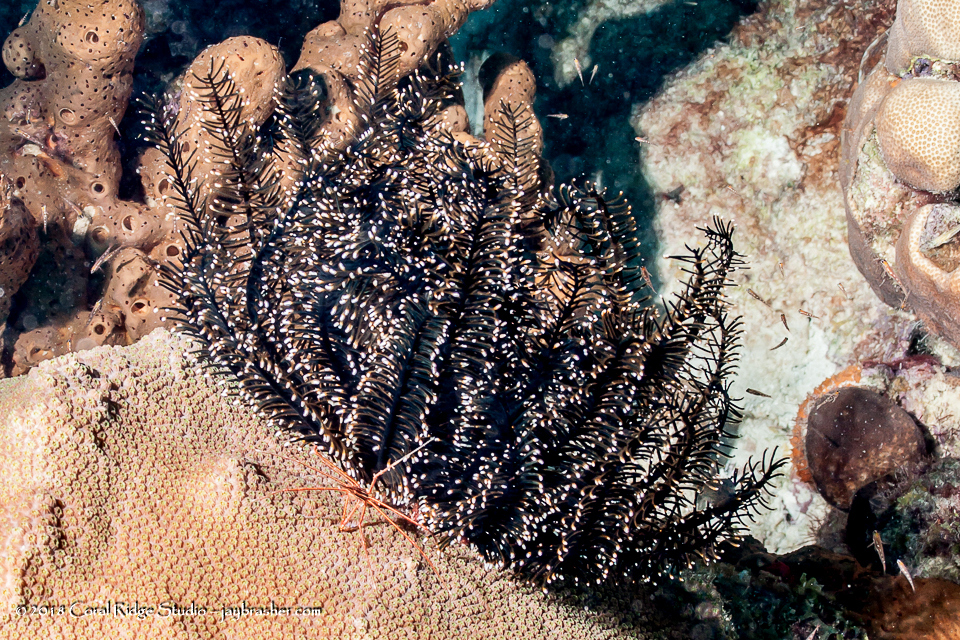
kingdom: Animalia
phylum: Echinodermata
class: Crinoidea
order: Comatulida
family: Comatulidae
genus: Nemaster
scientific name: Nemaster grandis
